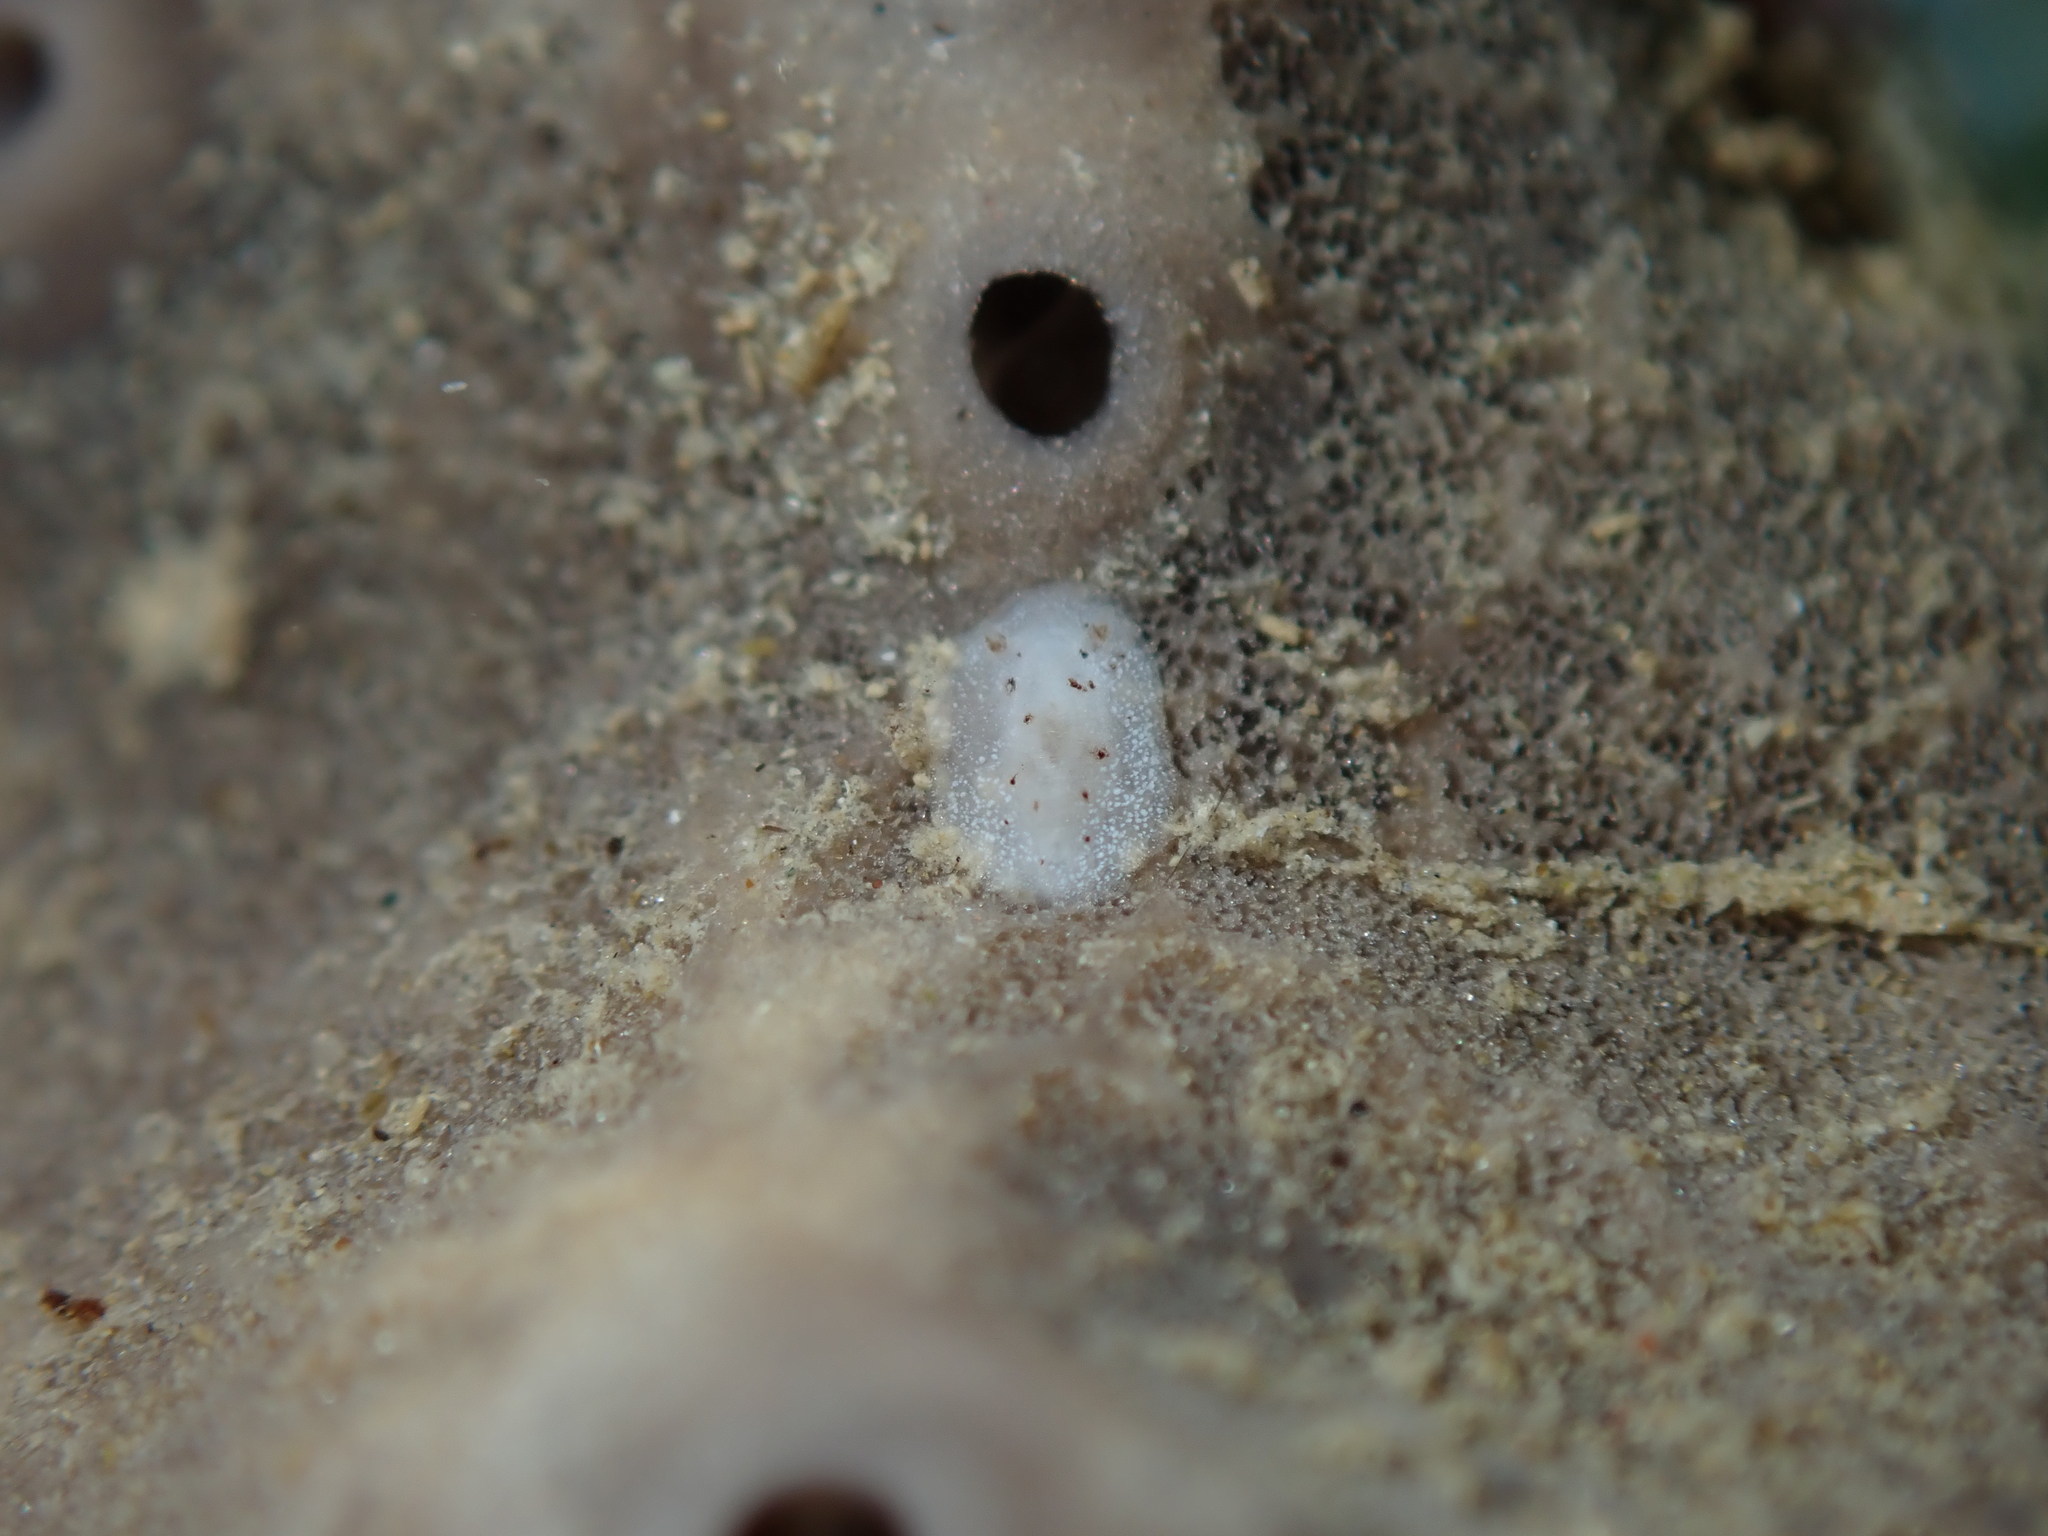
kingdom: Animalia
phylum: Mollusca
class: Gastropoda
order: Nudibranchia
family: Discodorididae
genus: Paradoris
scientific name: Paradoris dubia
